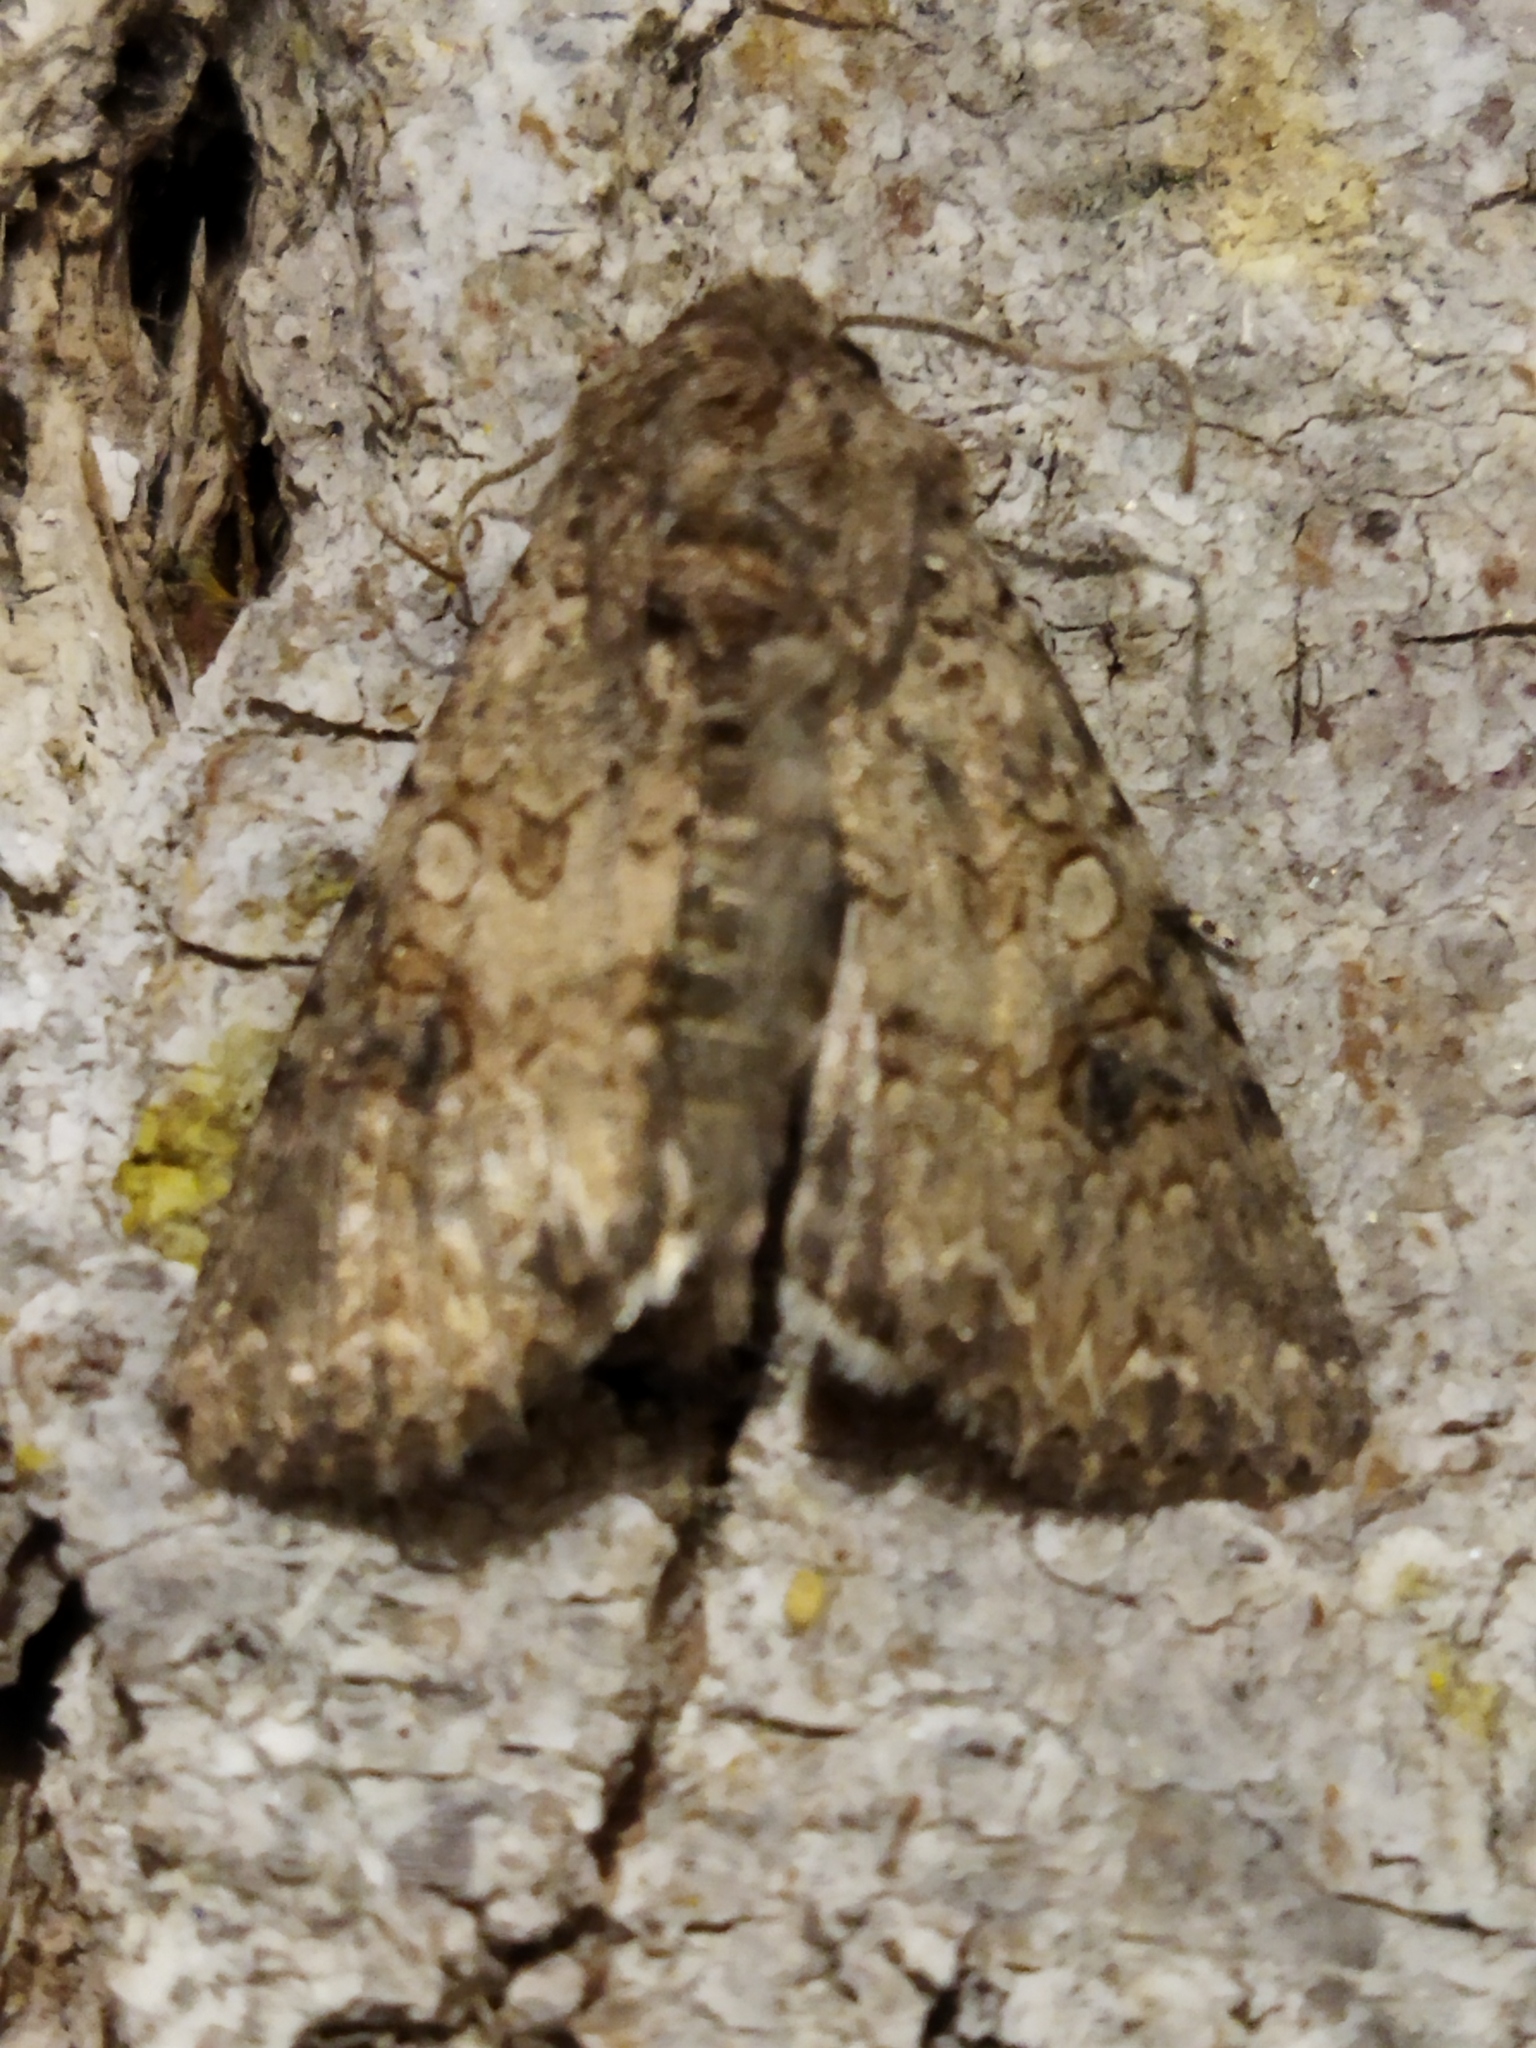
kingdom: Animalia
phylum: Arthropoda
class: Insecta
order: Lepidoptera
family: Noctuidae
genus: Anarta
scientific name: Anarta trifolii
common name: Clover cutworm moth
